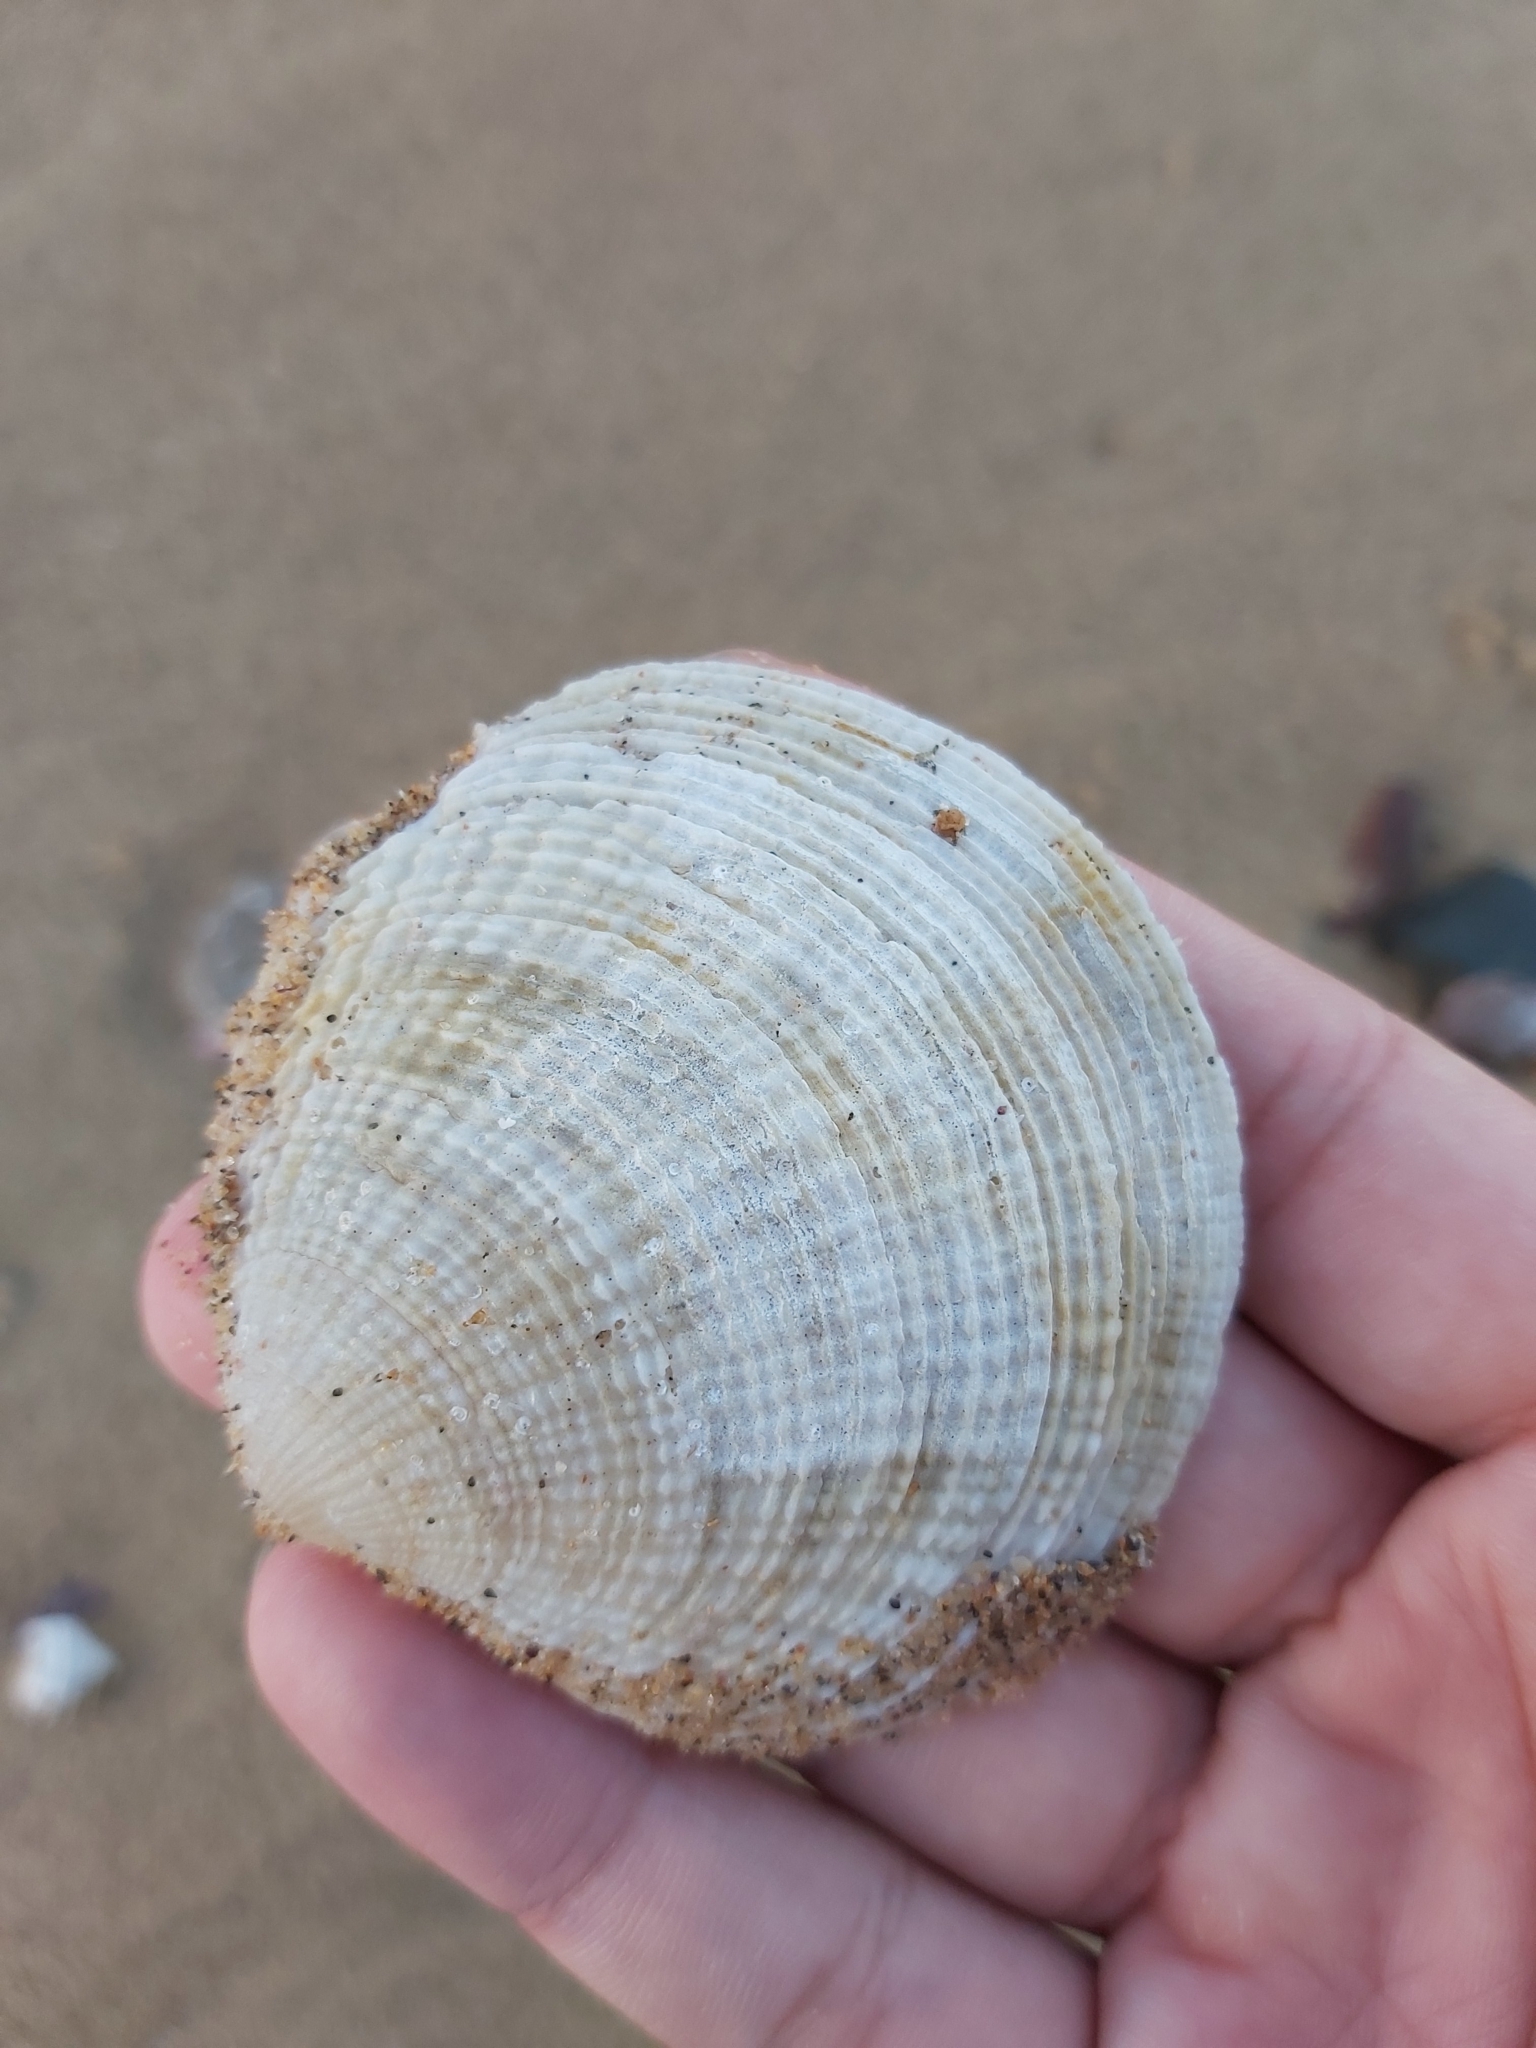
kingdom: Animalia
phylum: Mollusca
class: Bivalvia
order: Lucinida
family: Lucinidae
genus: Codakia
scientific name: Codakia rugifera
